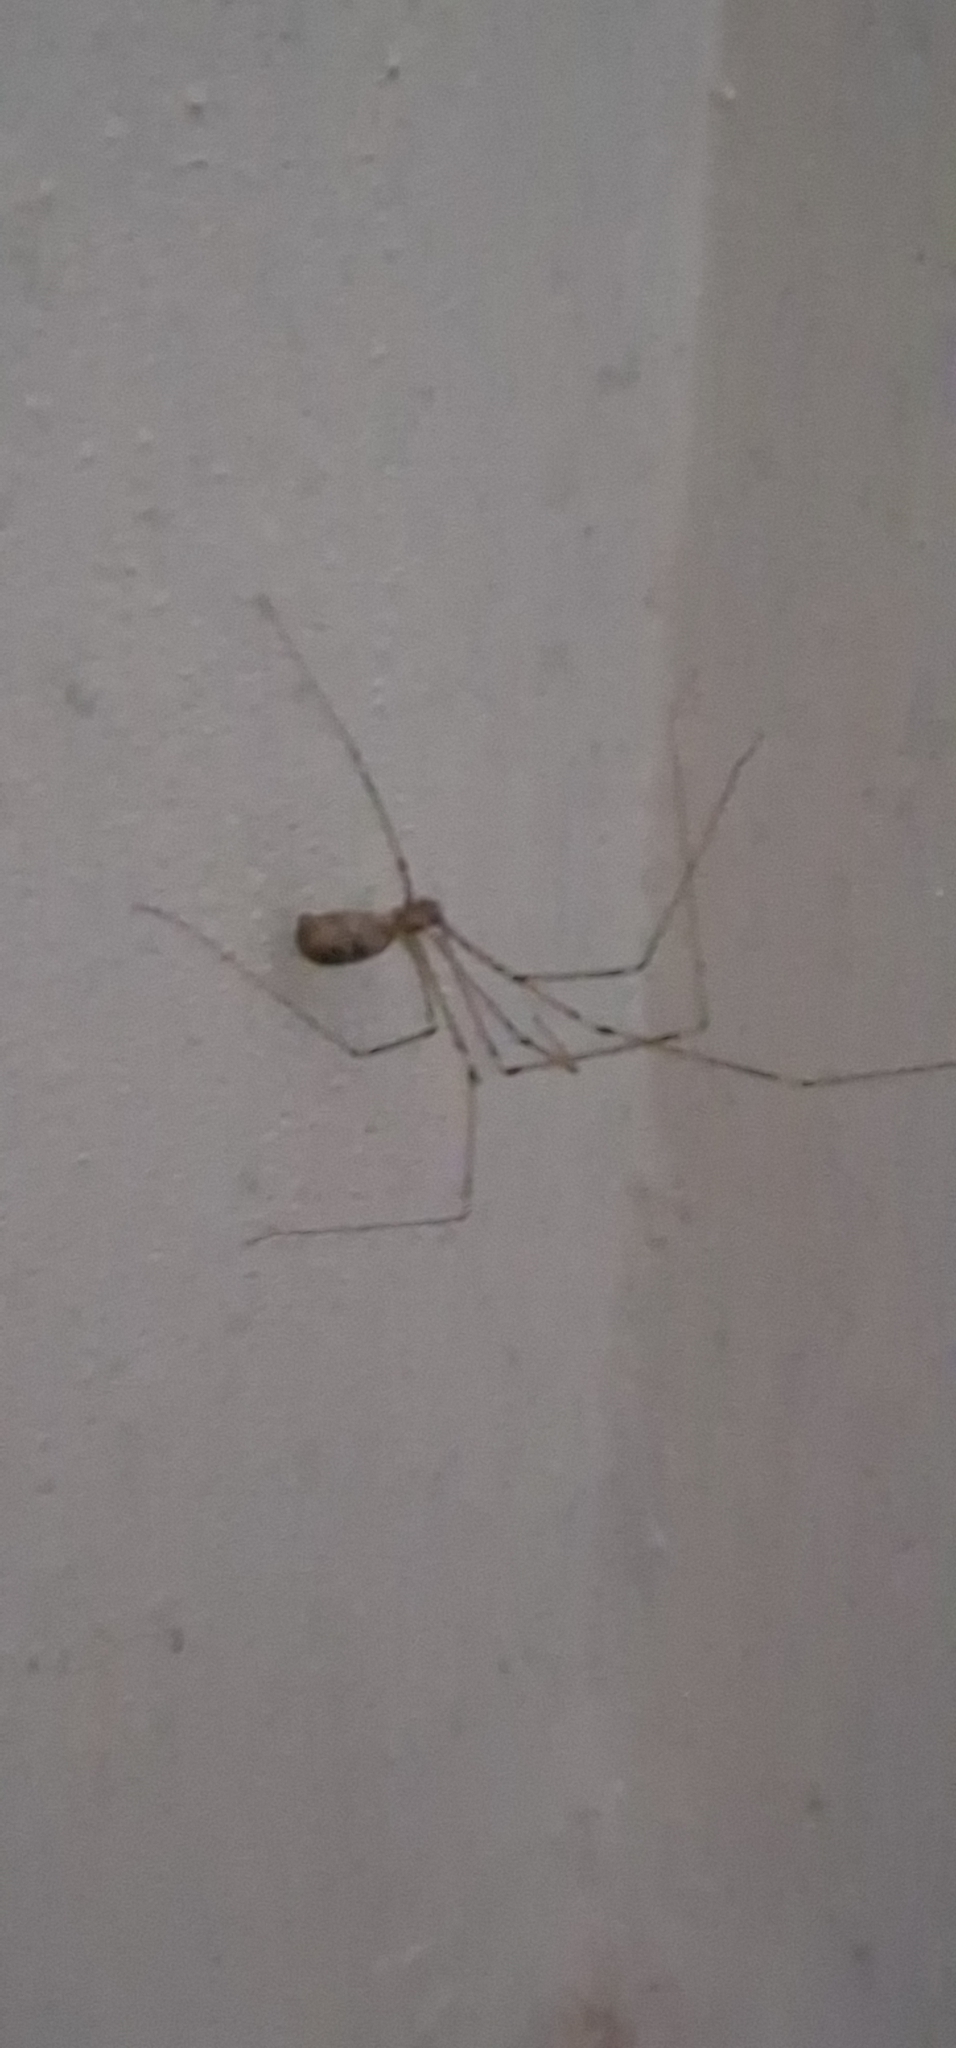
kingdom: Animalia
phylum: Arthropoda
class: Arachnida
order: Araneae
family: Pholcidae
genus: Pholcus
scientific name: Pholcus phalangioides
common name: Longbodied cellar spider
